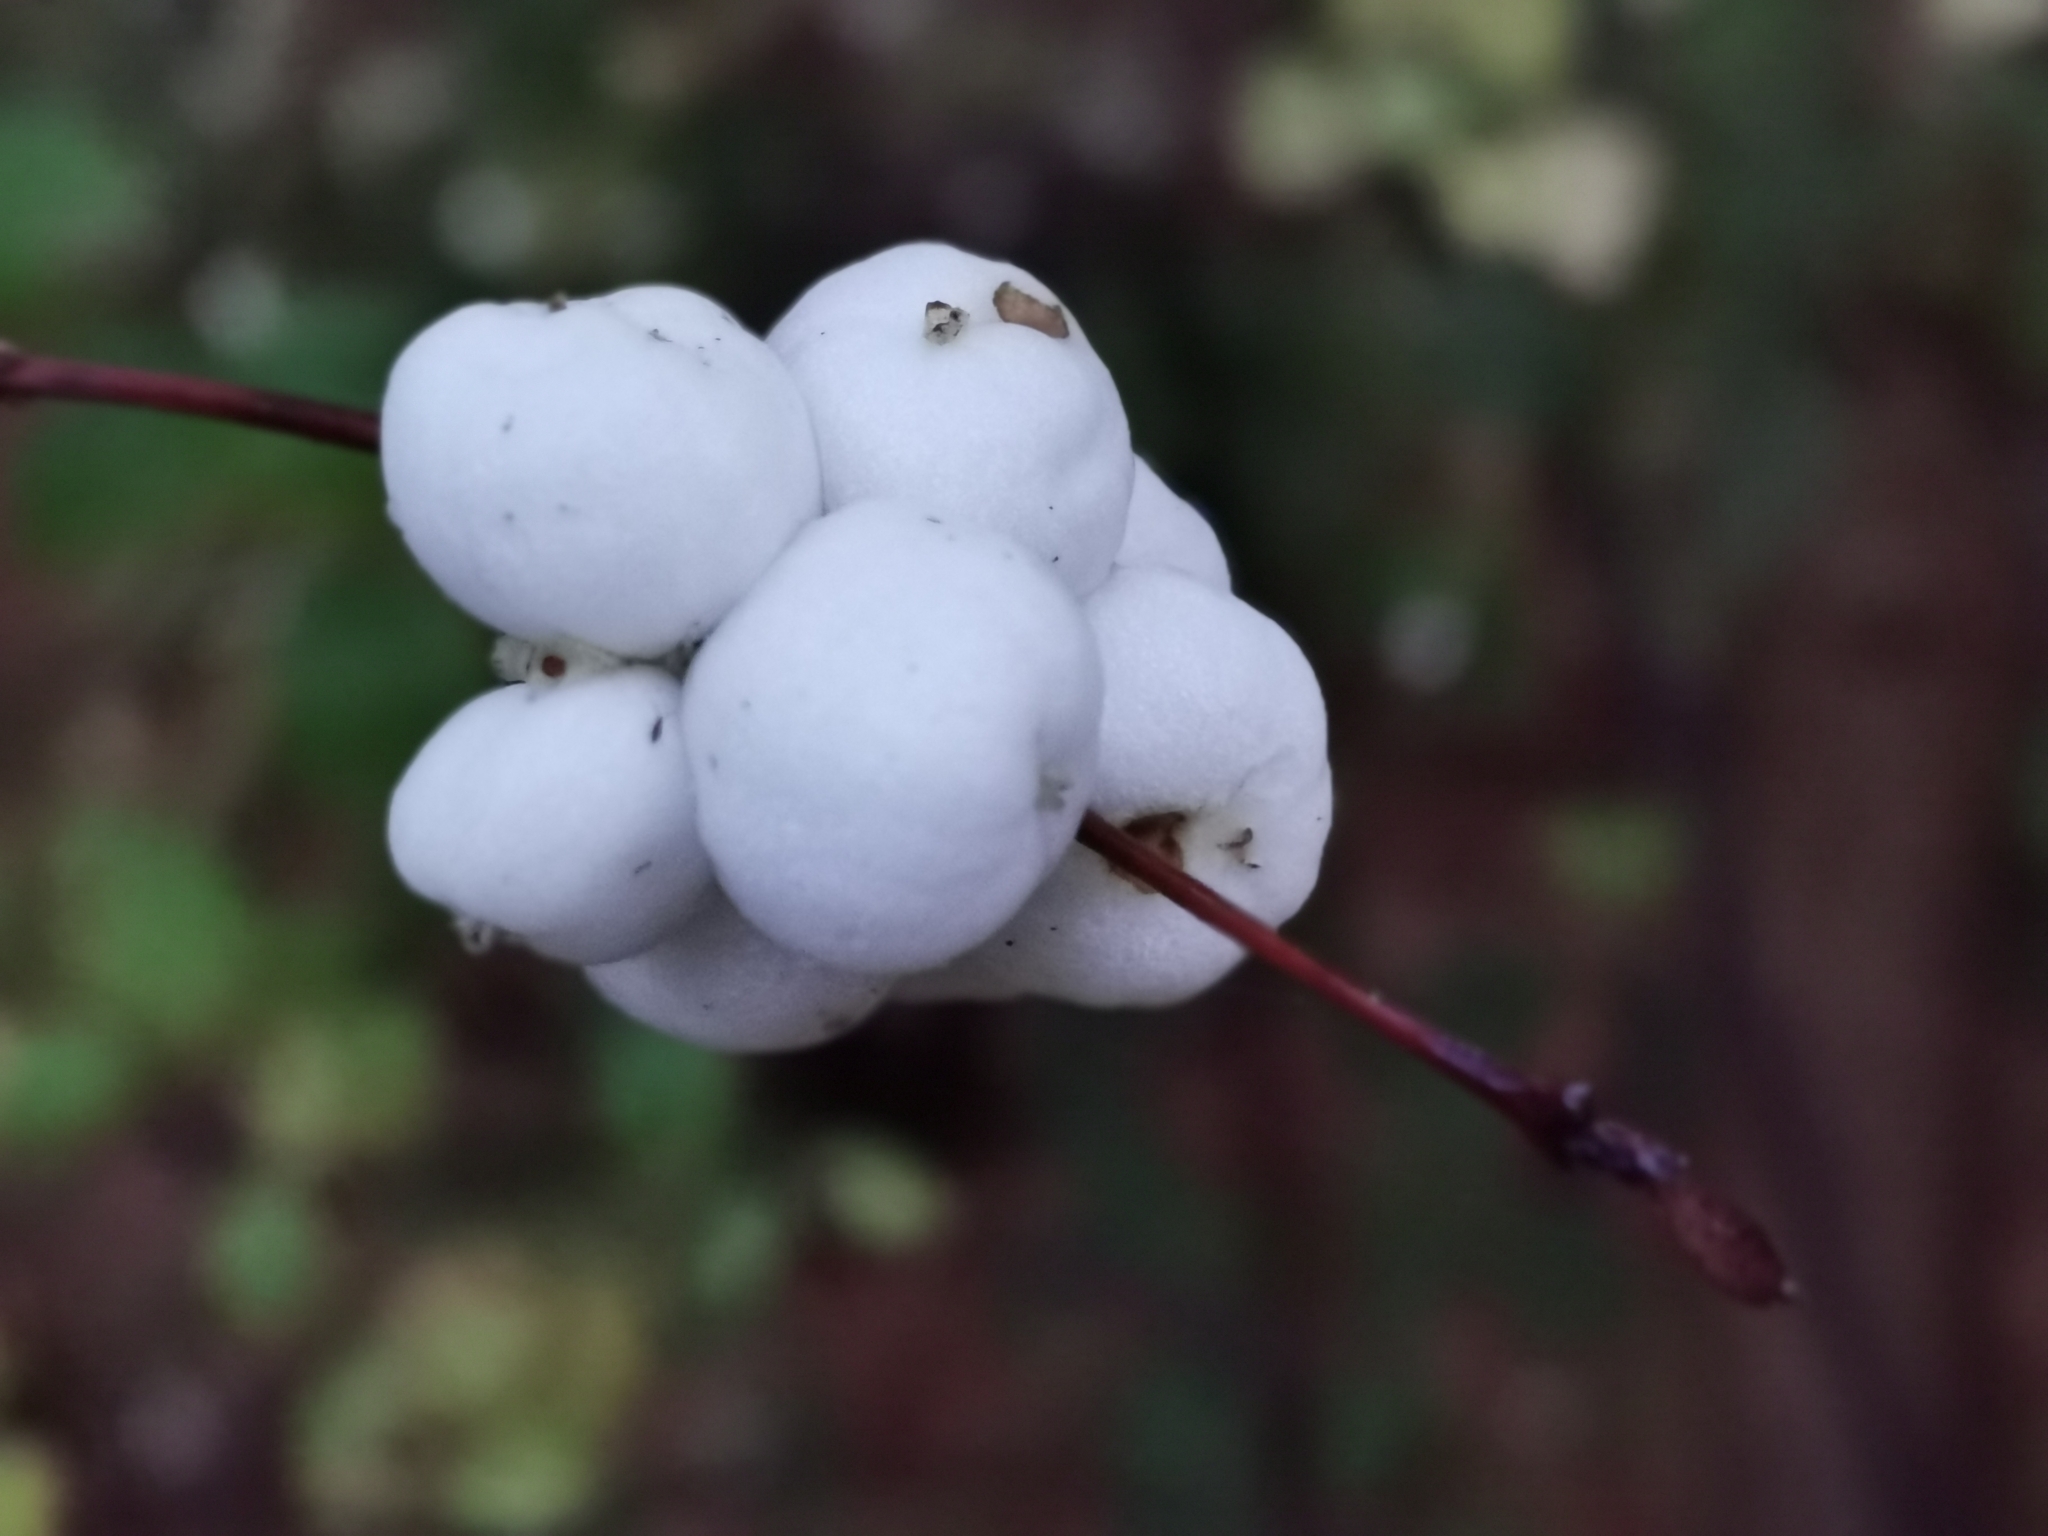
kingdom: Plantae
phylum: Tracheophyta
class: Magnoliopsida
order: Dipsacales
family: Caprifoliaceae
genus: Symphoricarpos
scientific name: Symphoricarpos albus
